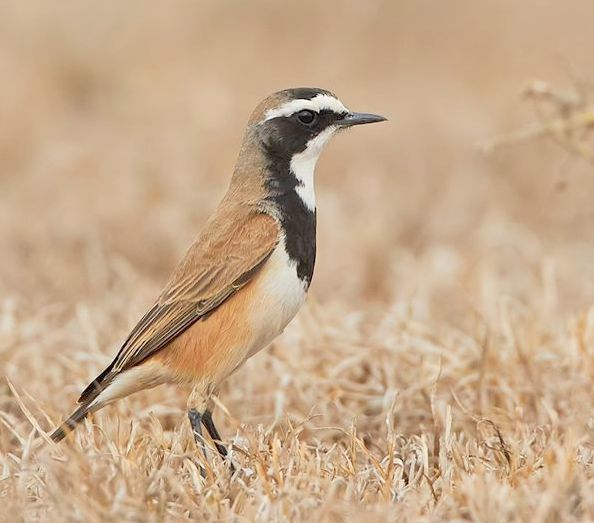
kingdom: Animalia
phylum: Chordata
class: Aves
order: Passeriformes
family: Muscicapidae
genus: Oenanthe
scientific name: Oenanthe pileata
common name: Capped wheatear
